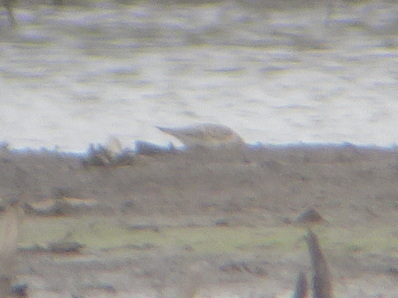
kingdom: Animalia
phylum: Chordata
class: Aves
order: Charadriiformes
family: Scolopacidae
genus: Calidris
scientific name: Calidris bairdii
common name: Baird's sandpiper
